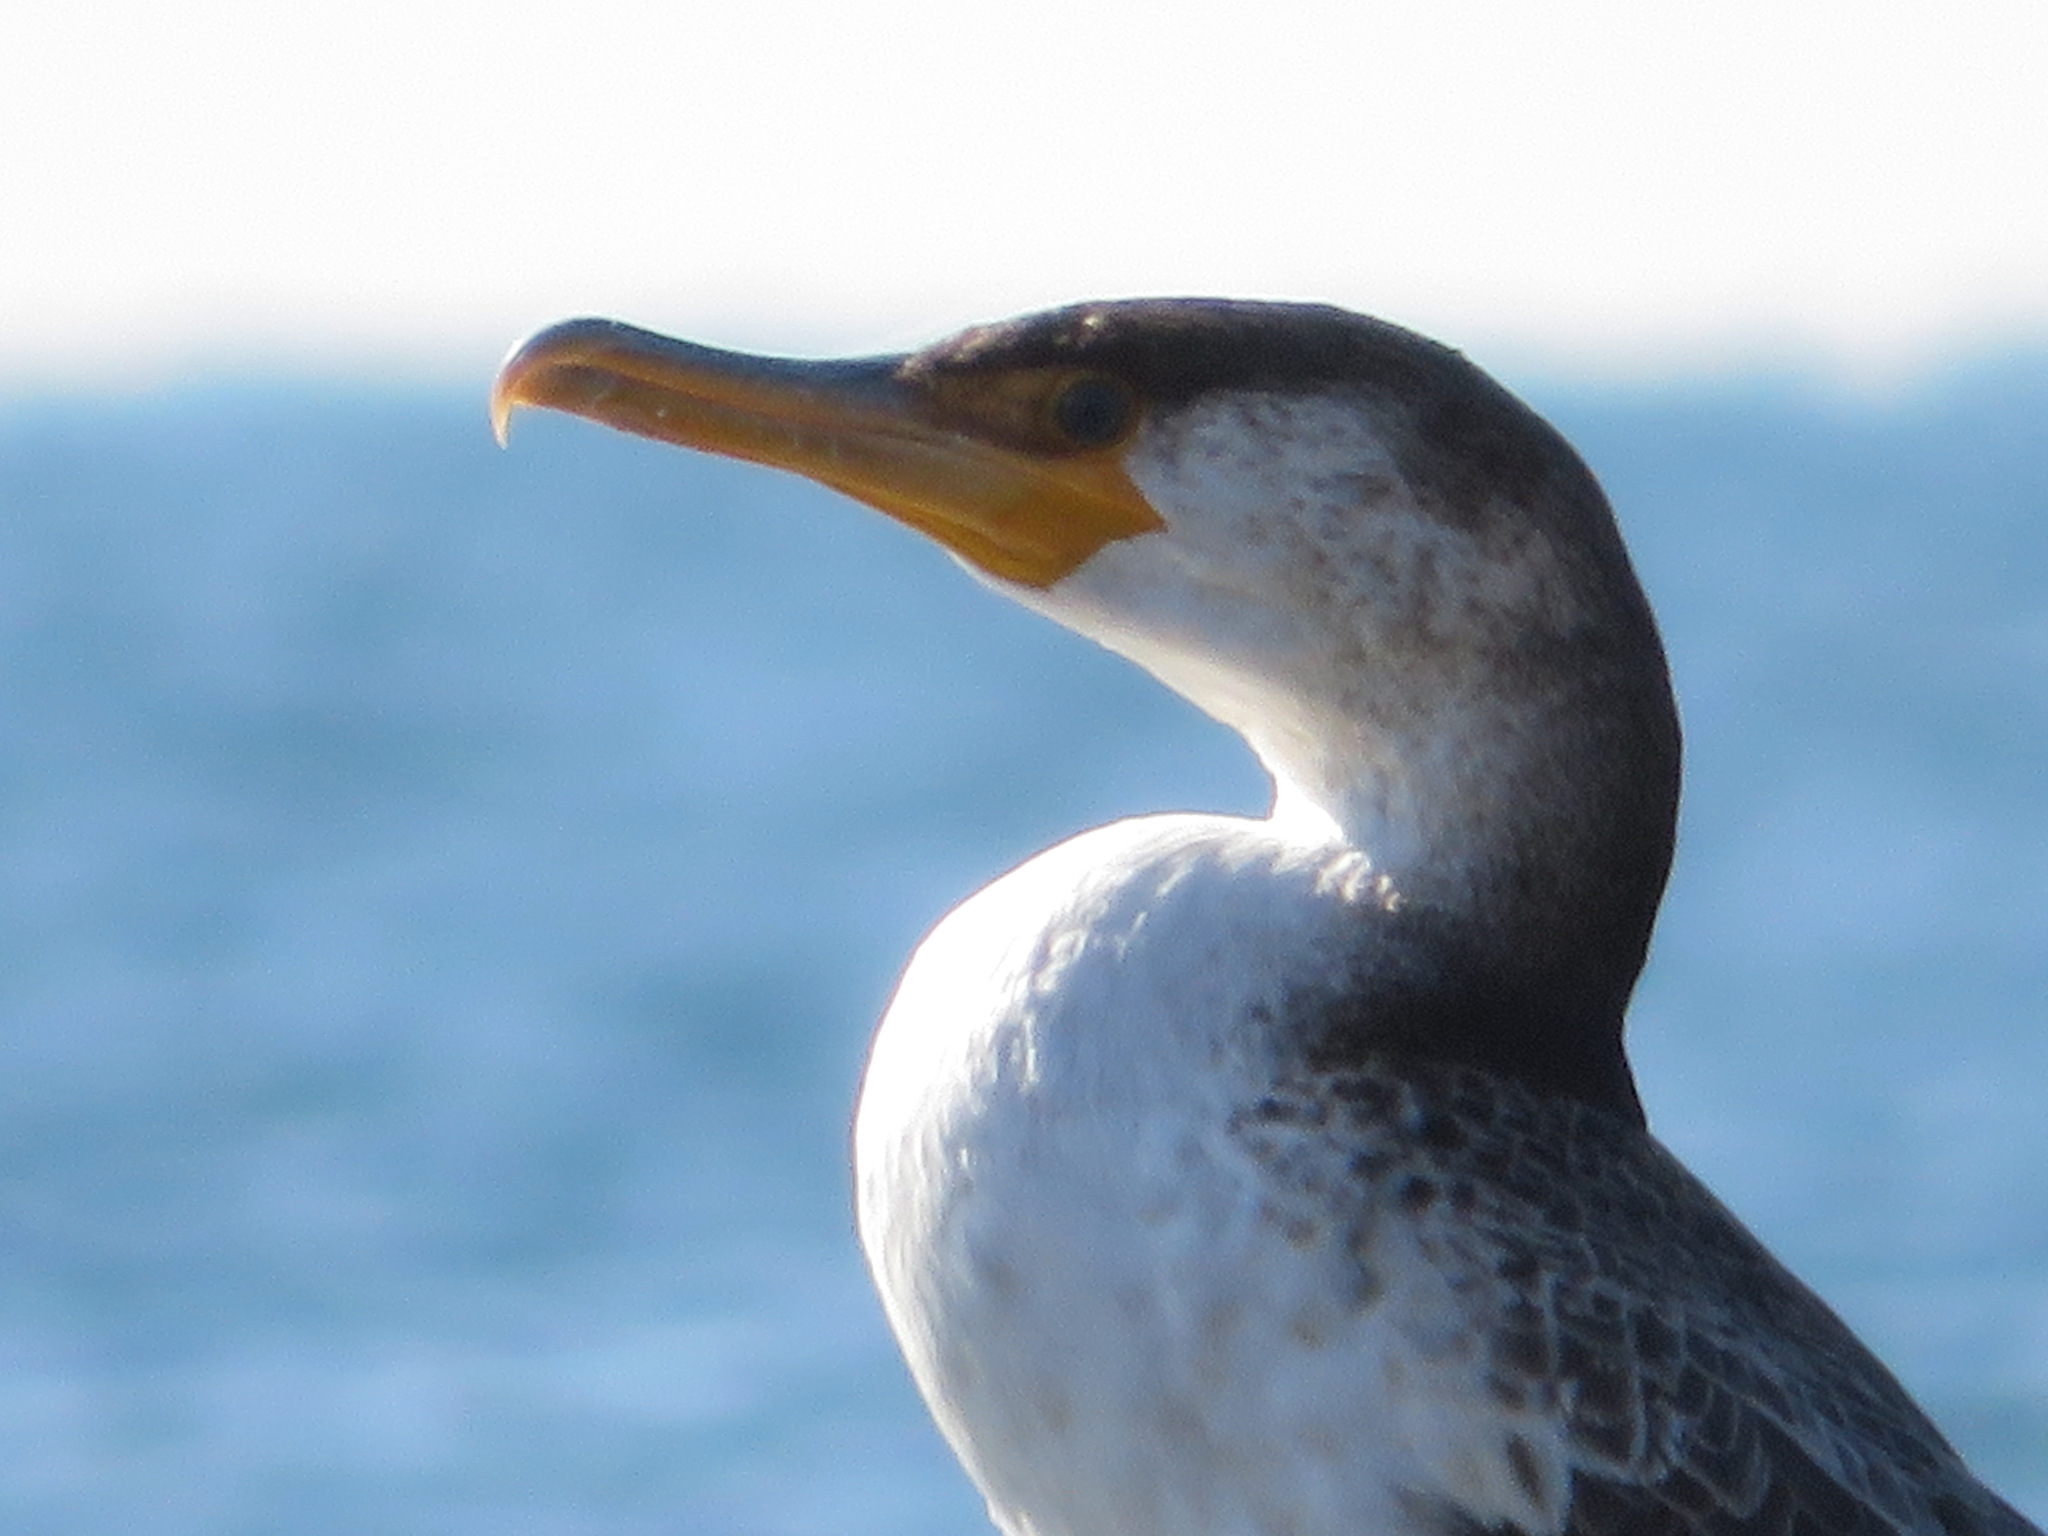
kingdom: Animalia
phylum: Chordata
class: Aves
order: Suliformes
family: Phalacrocoracidae
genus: Phalacrocorax
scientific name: Phalacrocorax capillatus
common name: Japanese cormorant
